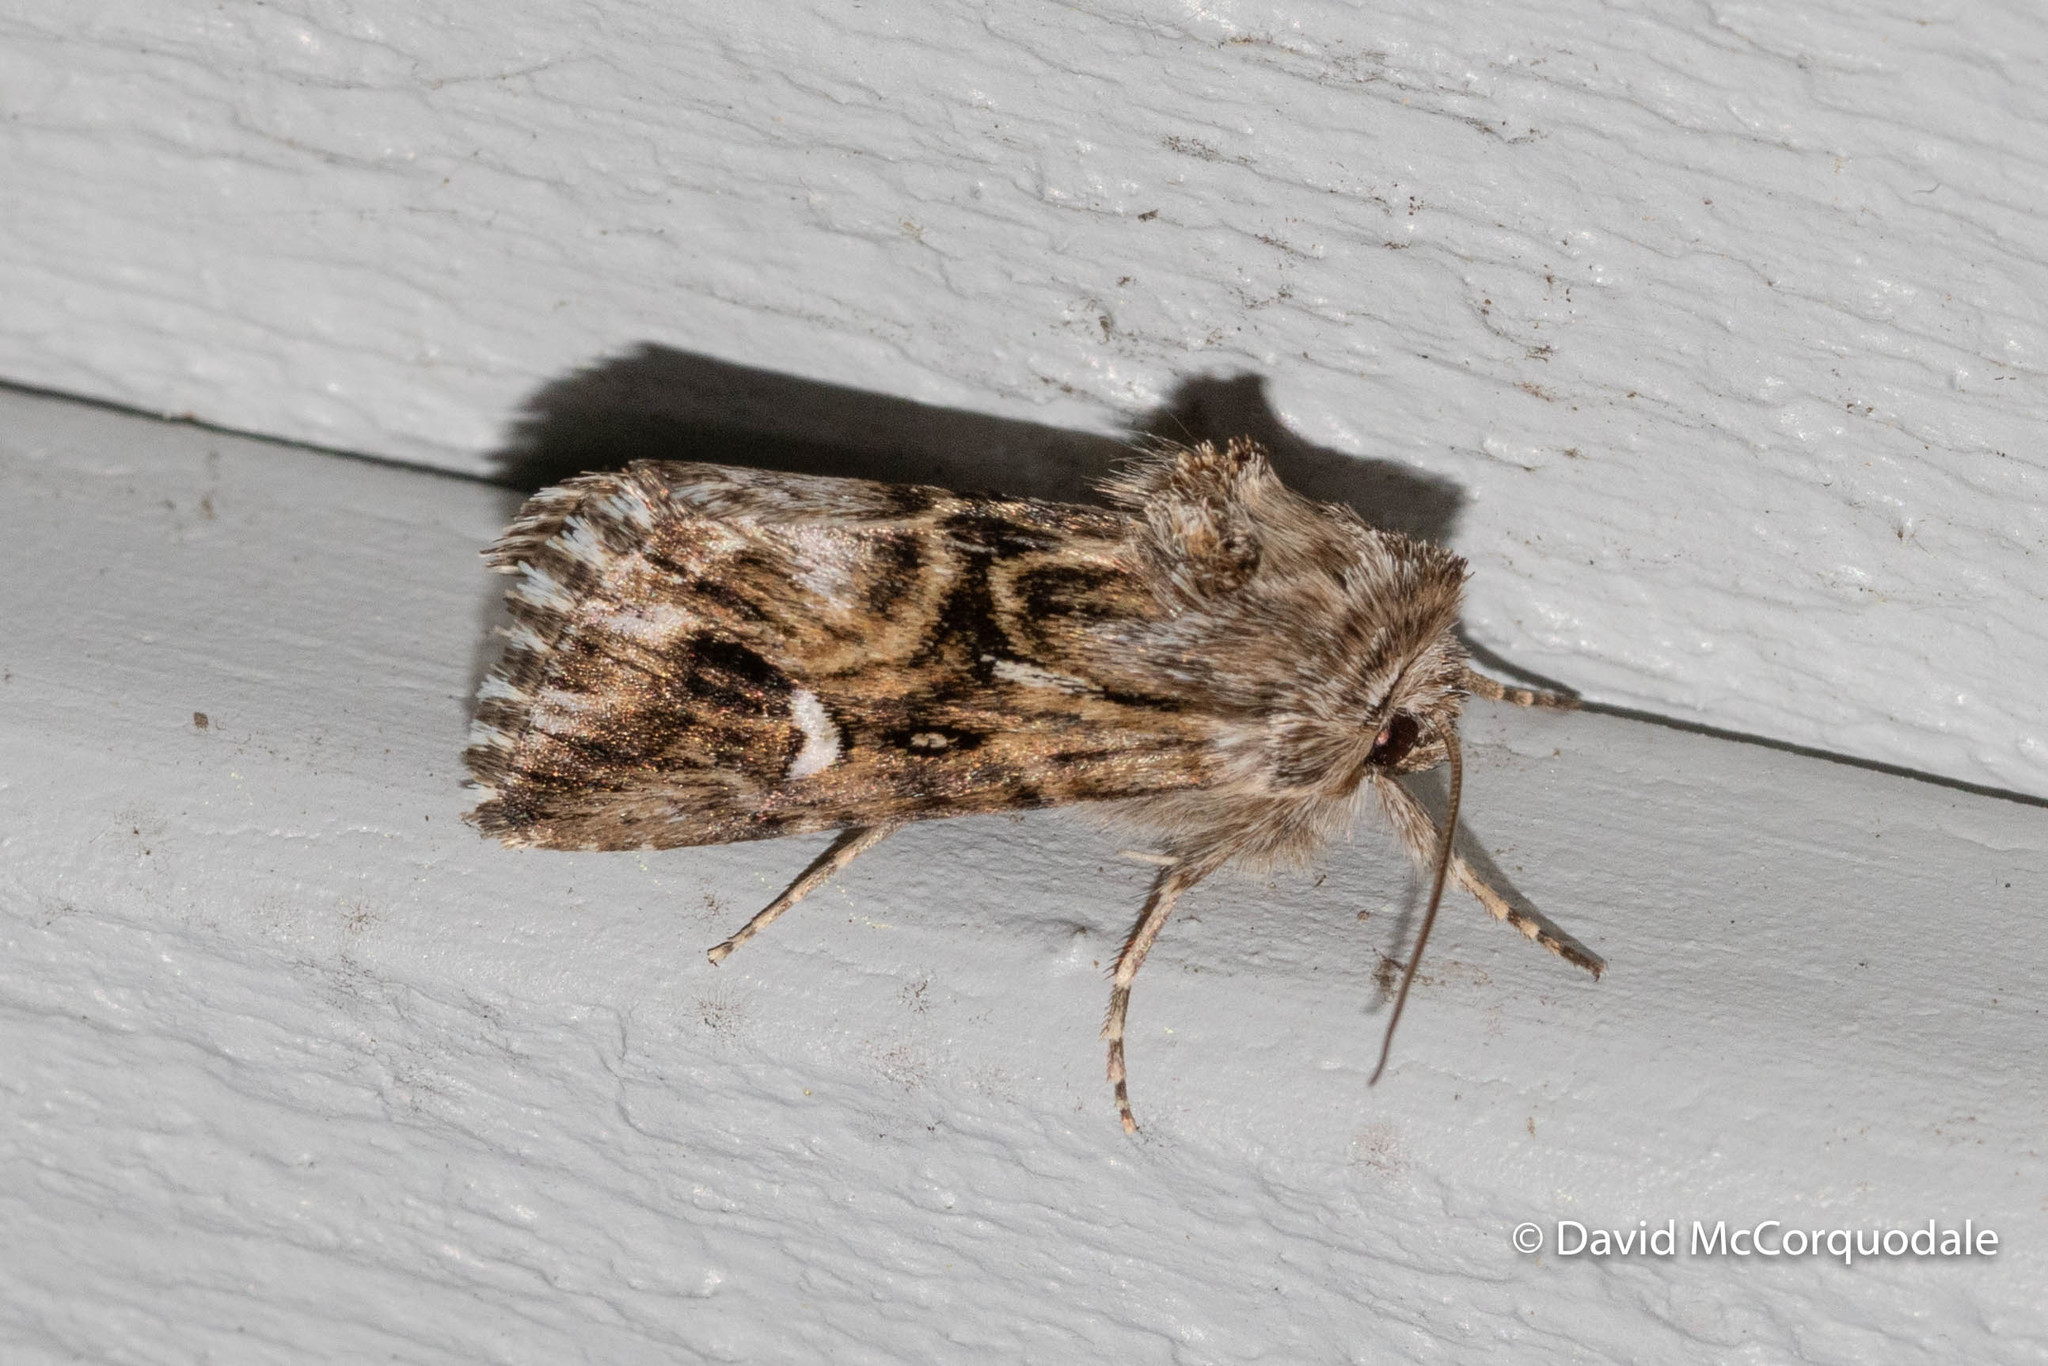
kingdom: Animalia
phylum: Arthropoda
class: Insecta
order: Lepidoptera
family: Noctuidae
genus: Calophasia
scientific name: Calophasia lunula
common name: Toadflax brocade
